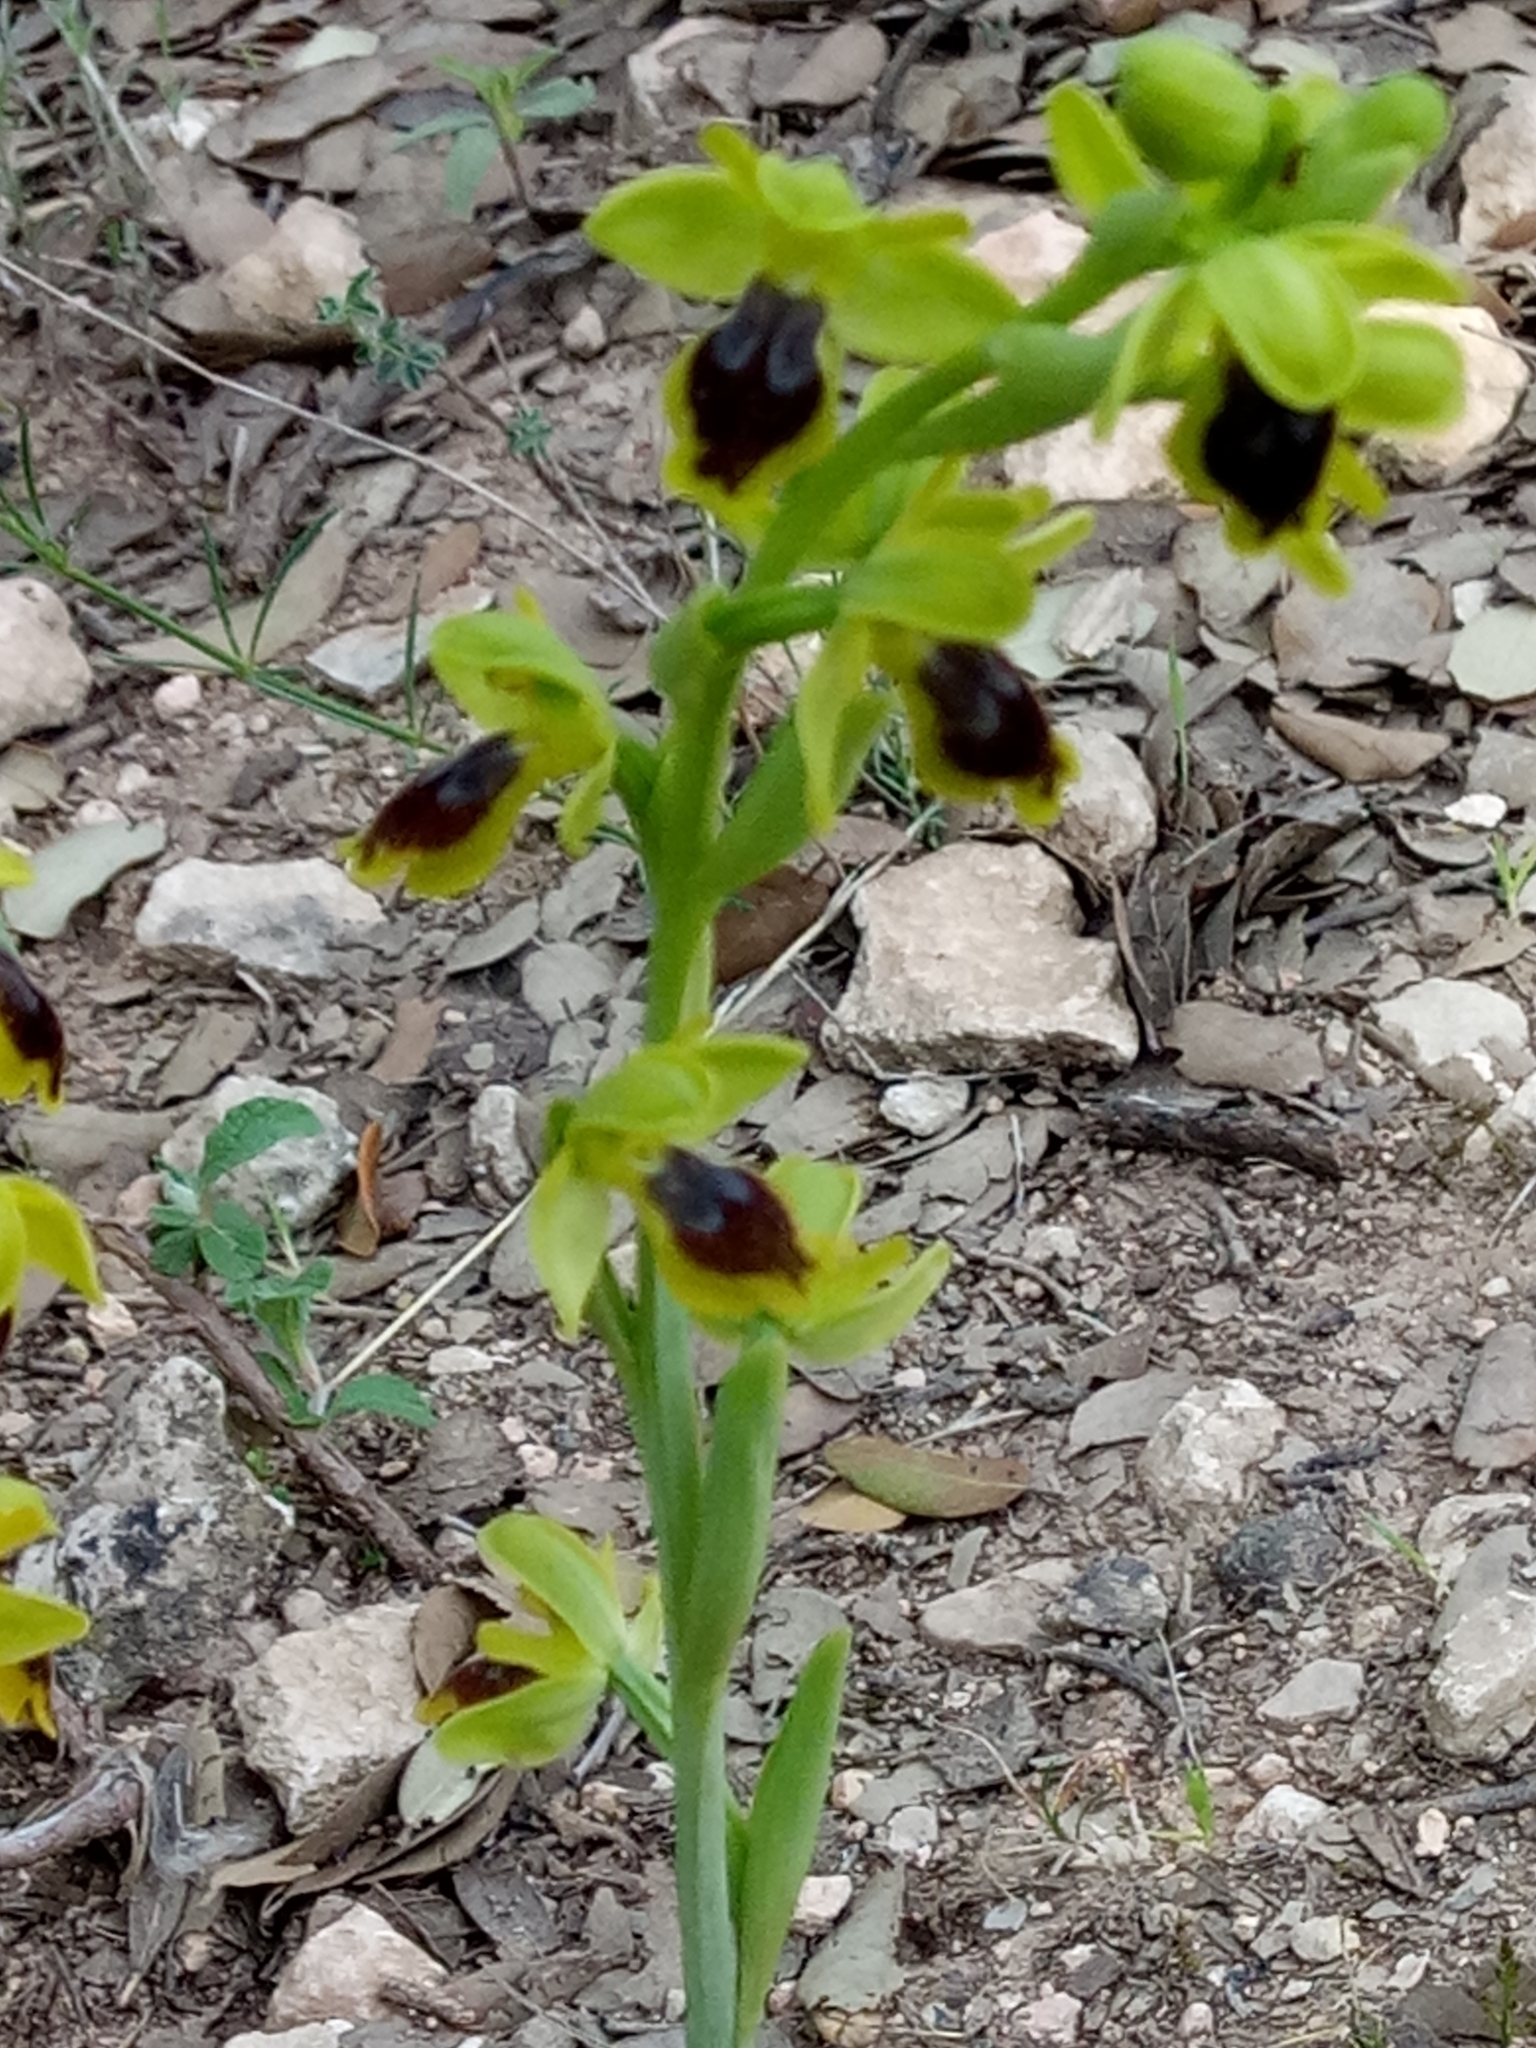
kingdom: Plantae
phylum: Tracheophyta
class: Liliopsida
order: Asparagales
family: Orchidaceae
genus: Ophrys
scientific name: Ophrys battandieri
